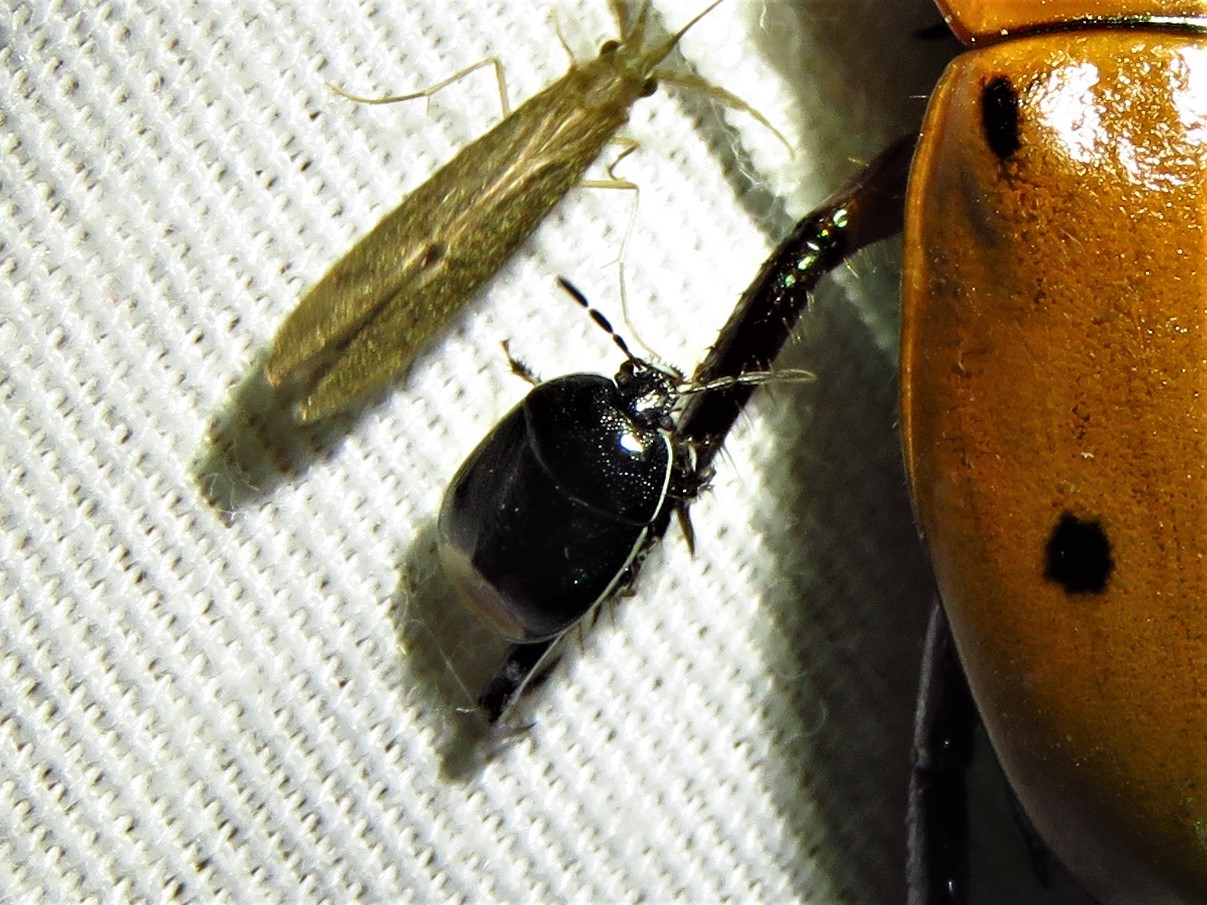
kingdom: Animalia
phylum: Arthropoda
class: Insecta
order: Hemiptera
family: Cydnidae
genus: Sehirus
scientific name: Sehirus cinctus
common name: White-margined burrower bug
